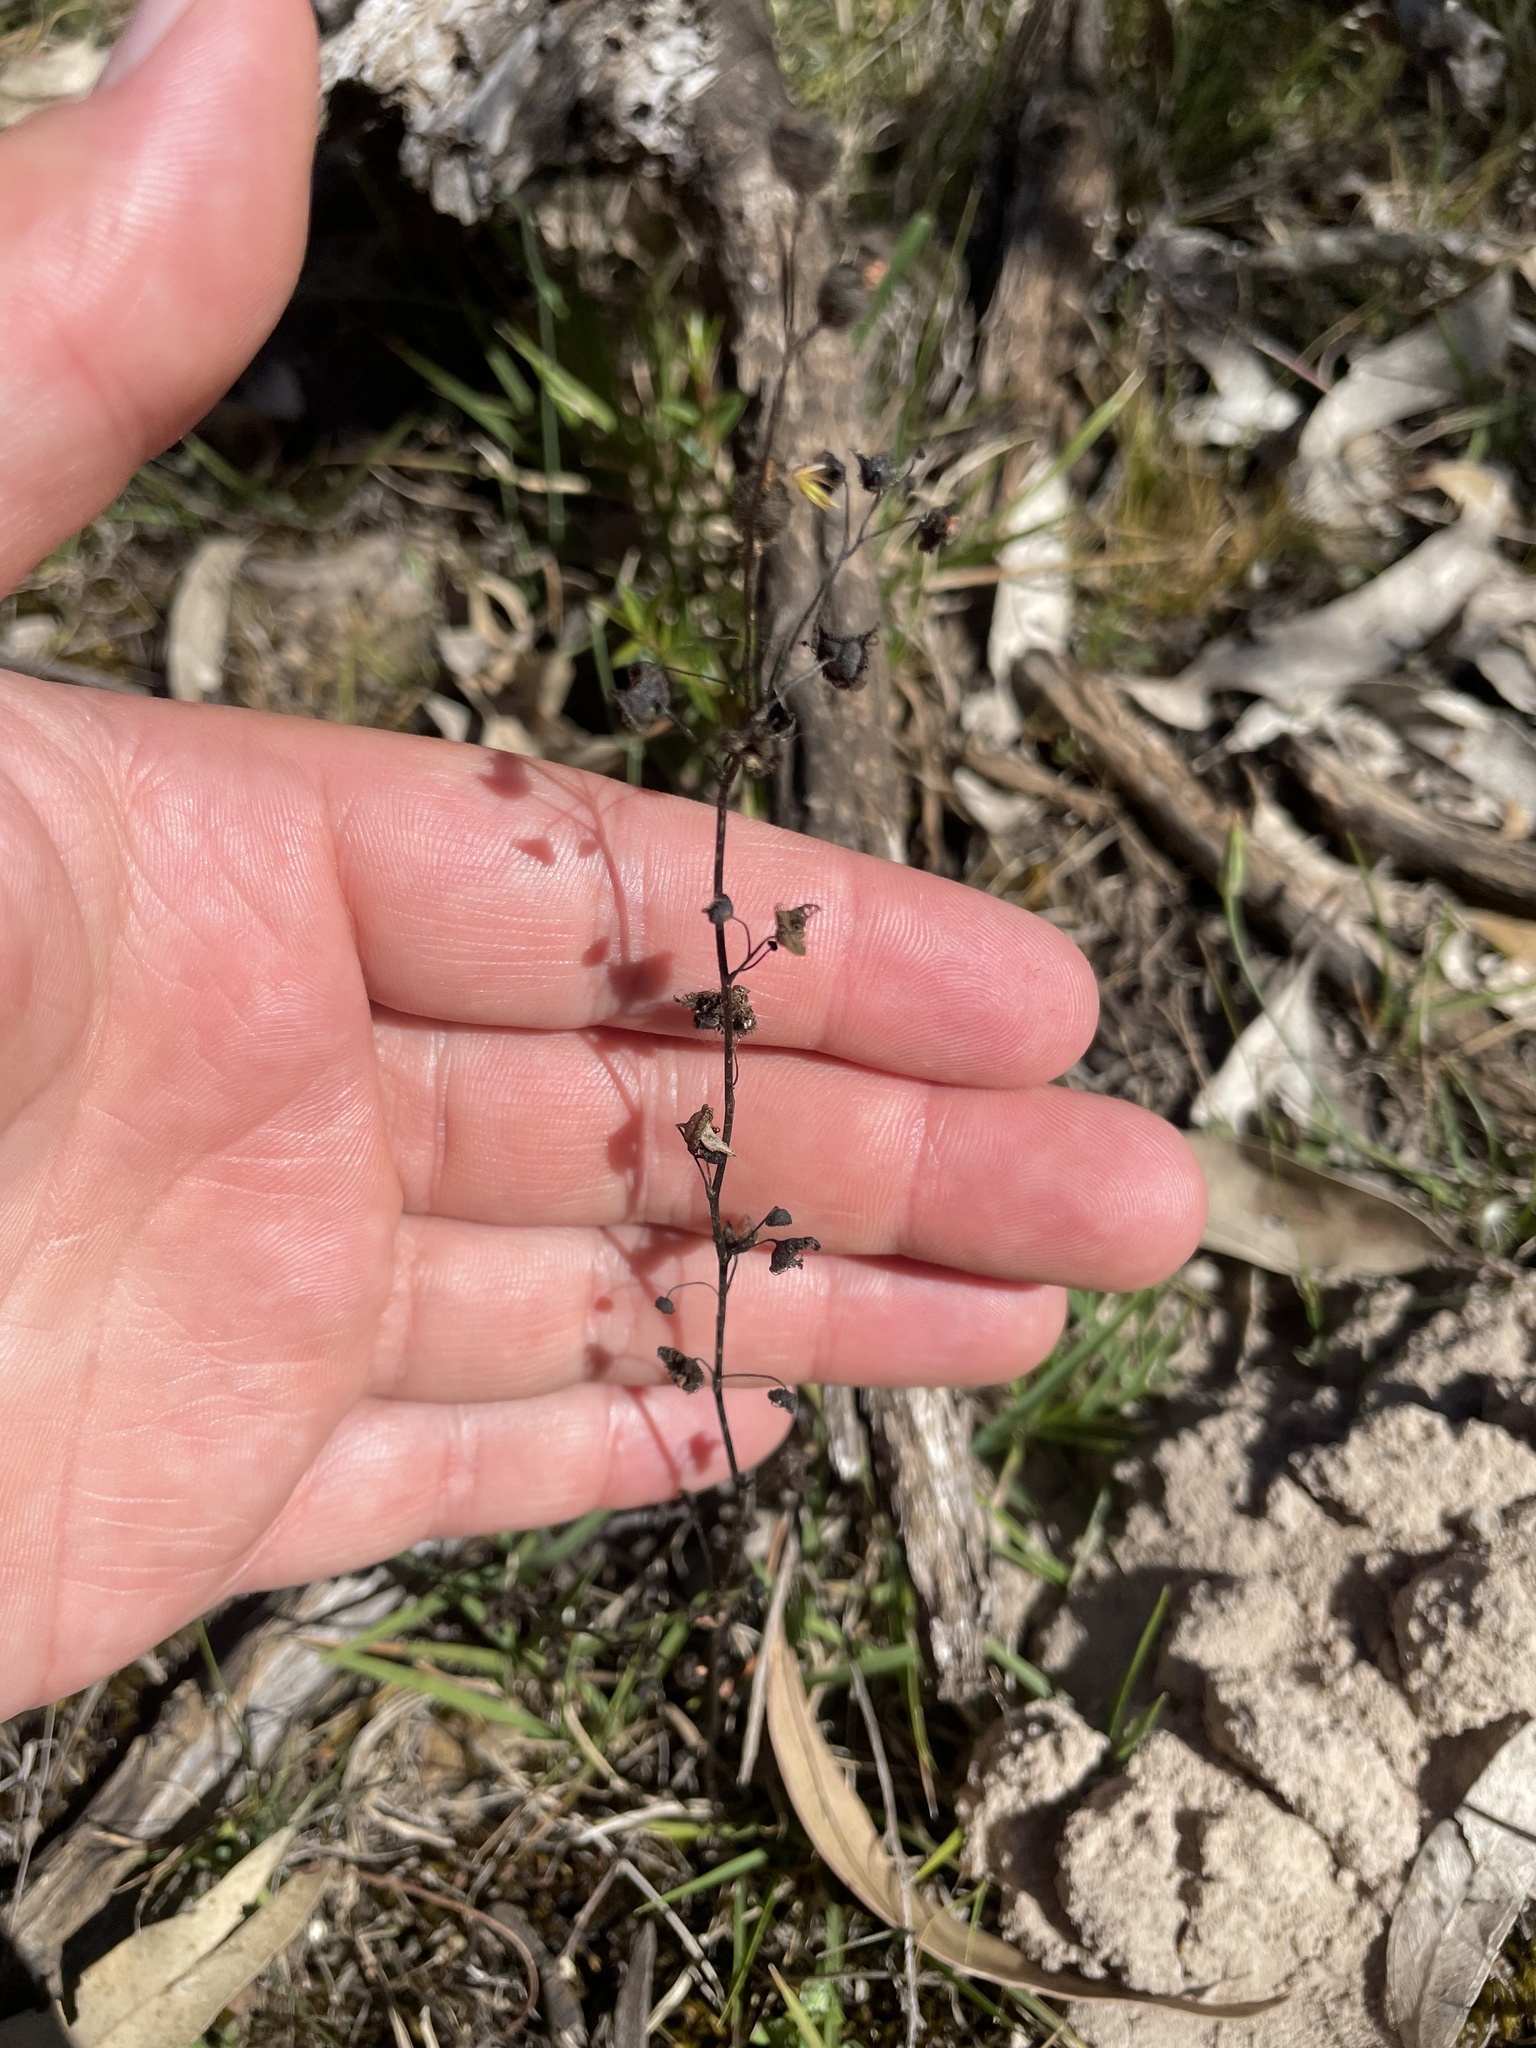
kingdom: Plantae
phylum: Tracheophyta
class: Magnoliopsida
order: Caryophyllales
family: Droseraceae
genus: Drosera
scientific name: Drosera gunniana
